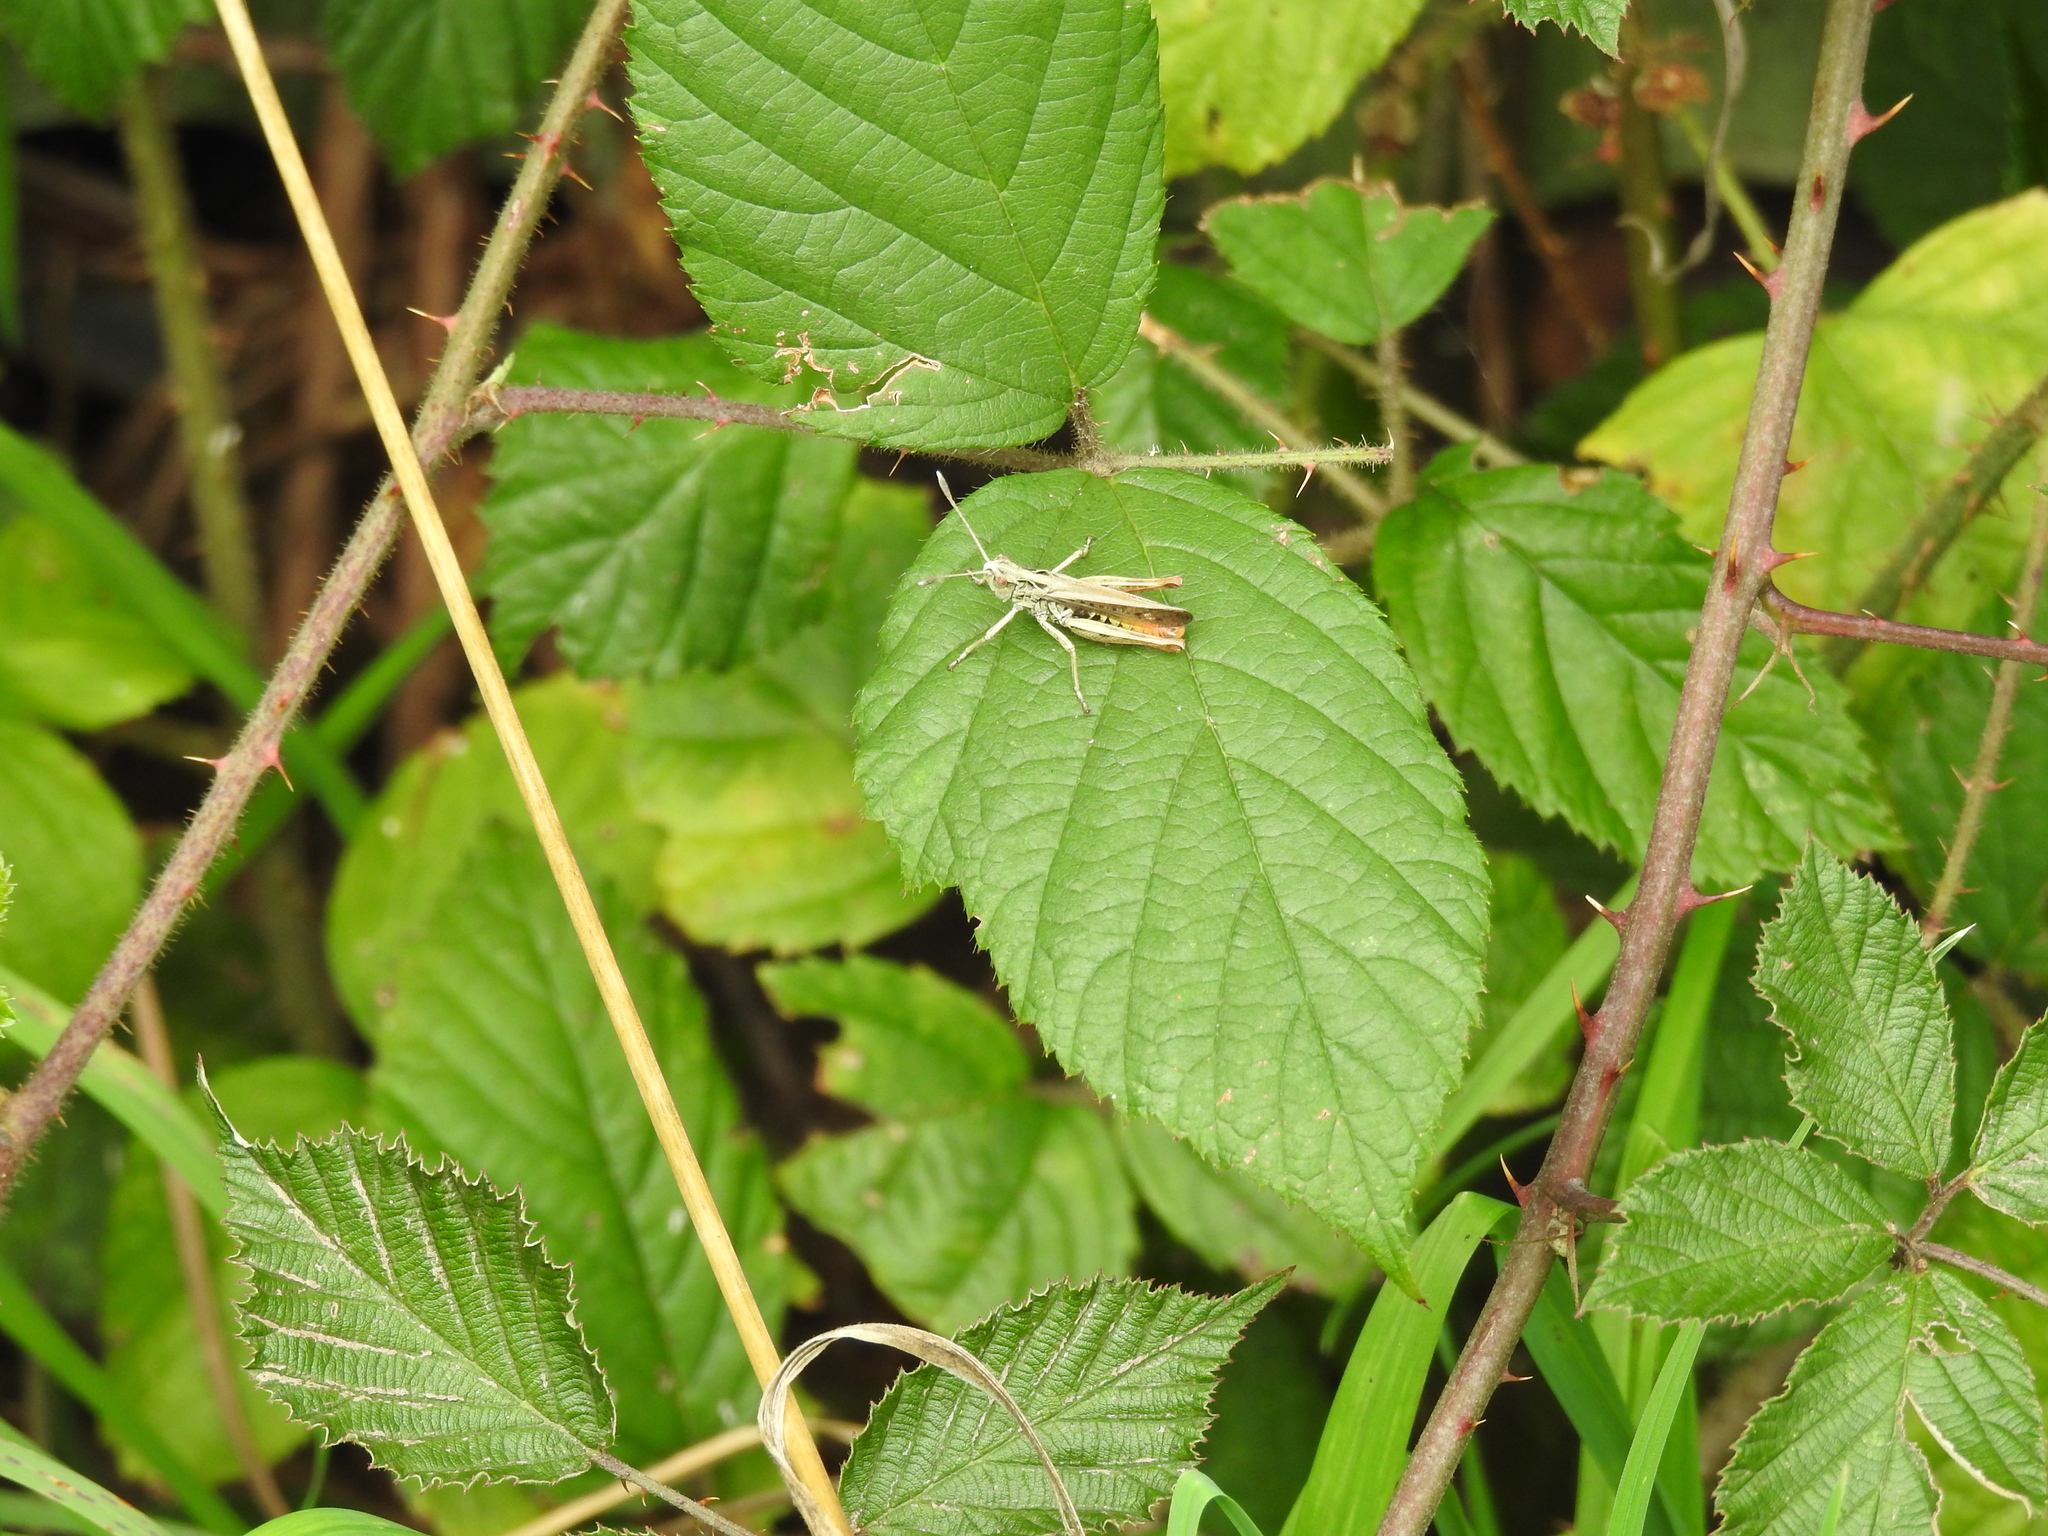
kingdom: Animalia
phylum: Arthropoda
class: Insecta
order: Orthoptera
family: Acrididae
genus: Gomphocerippus
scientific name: Gomphocerippus rufus
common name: Rufous grasshopper
